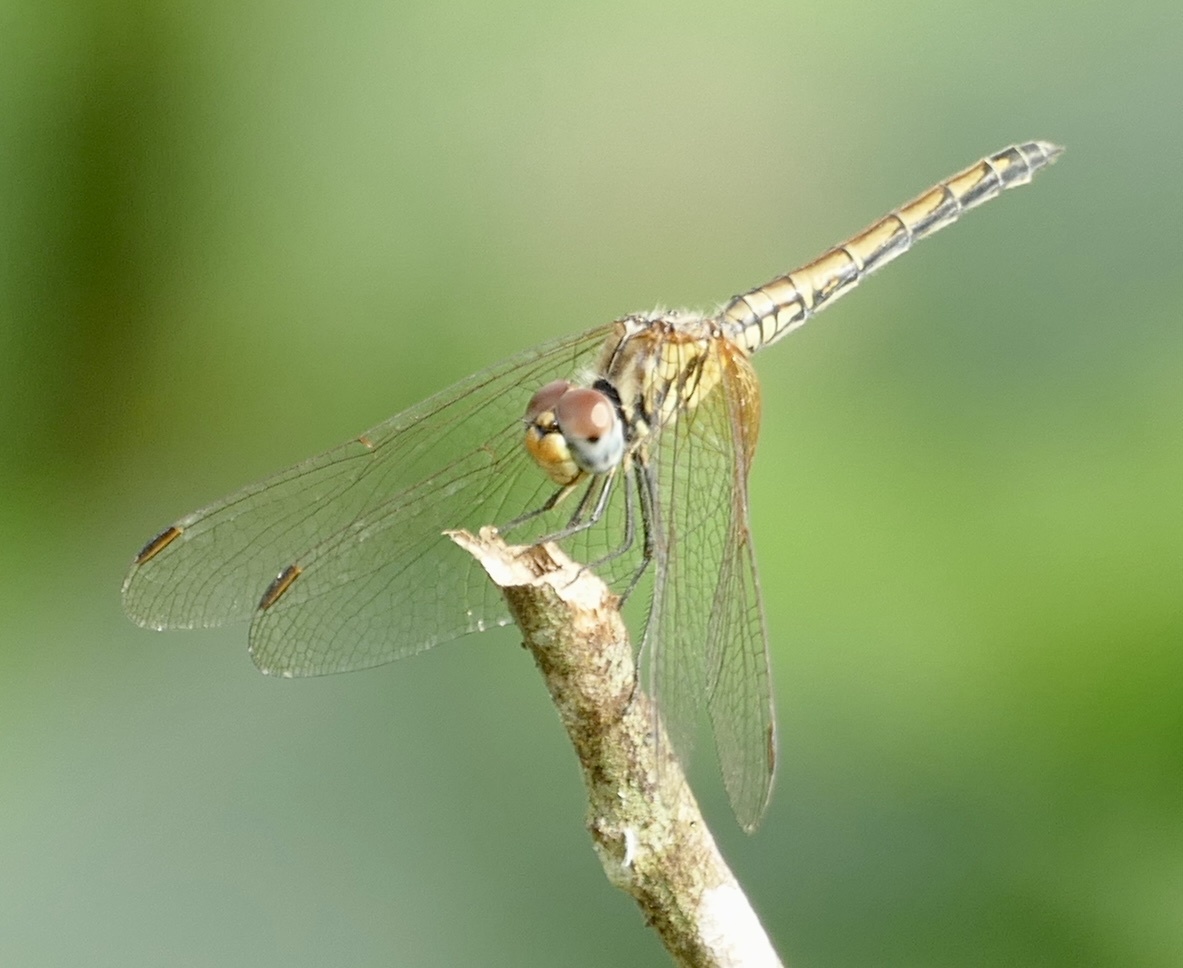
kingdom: Animalia
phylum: Arthropoda
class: Insecta
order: Odonata
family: Libellulidae
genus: Trithemis
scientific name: Trithemis arteriosa
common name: Red-veined dropwing
